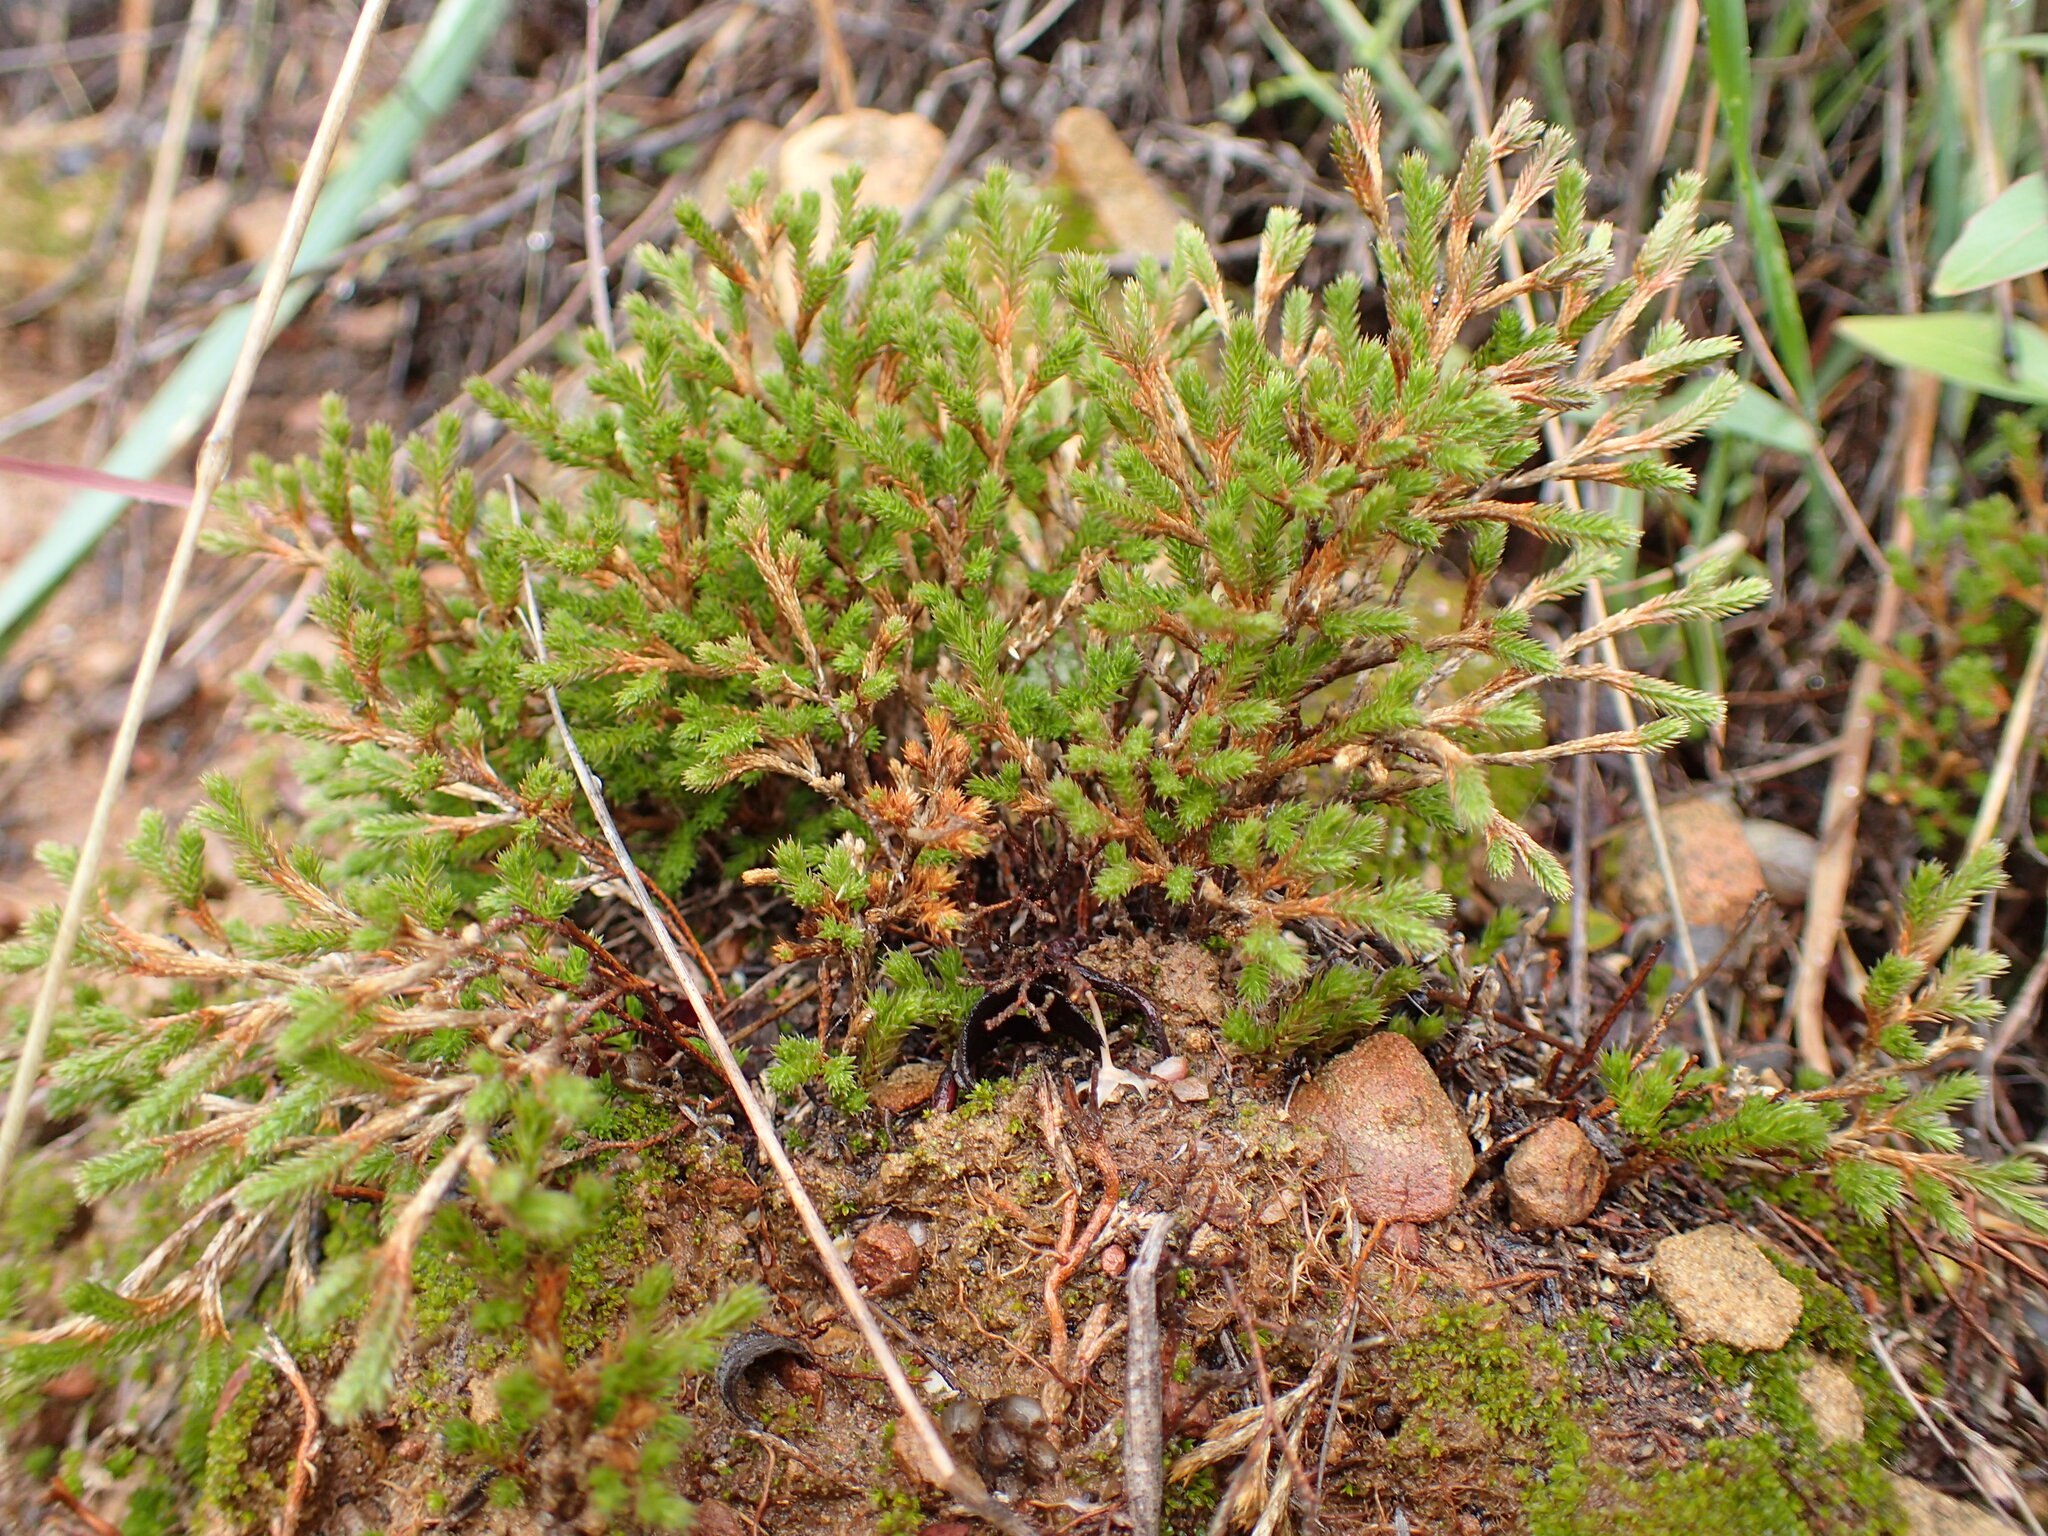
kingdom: Plantae
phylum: Tracheophyta
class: Lycopodiopsida
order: Selaginellales
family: Selaginellaceae
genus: Selaginella
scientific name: Selaginella bigelovii
